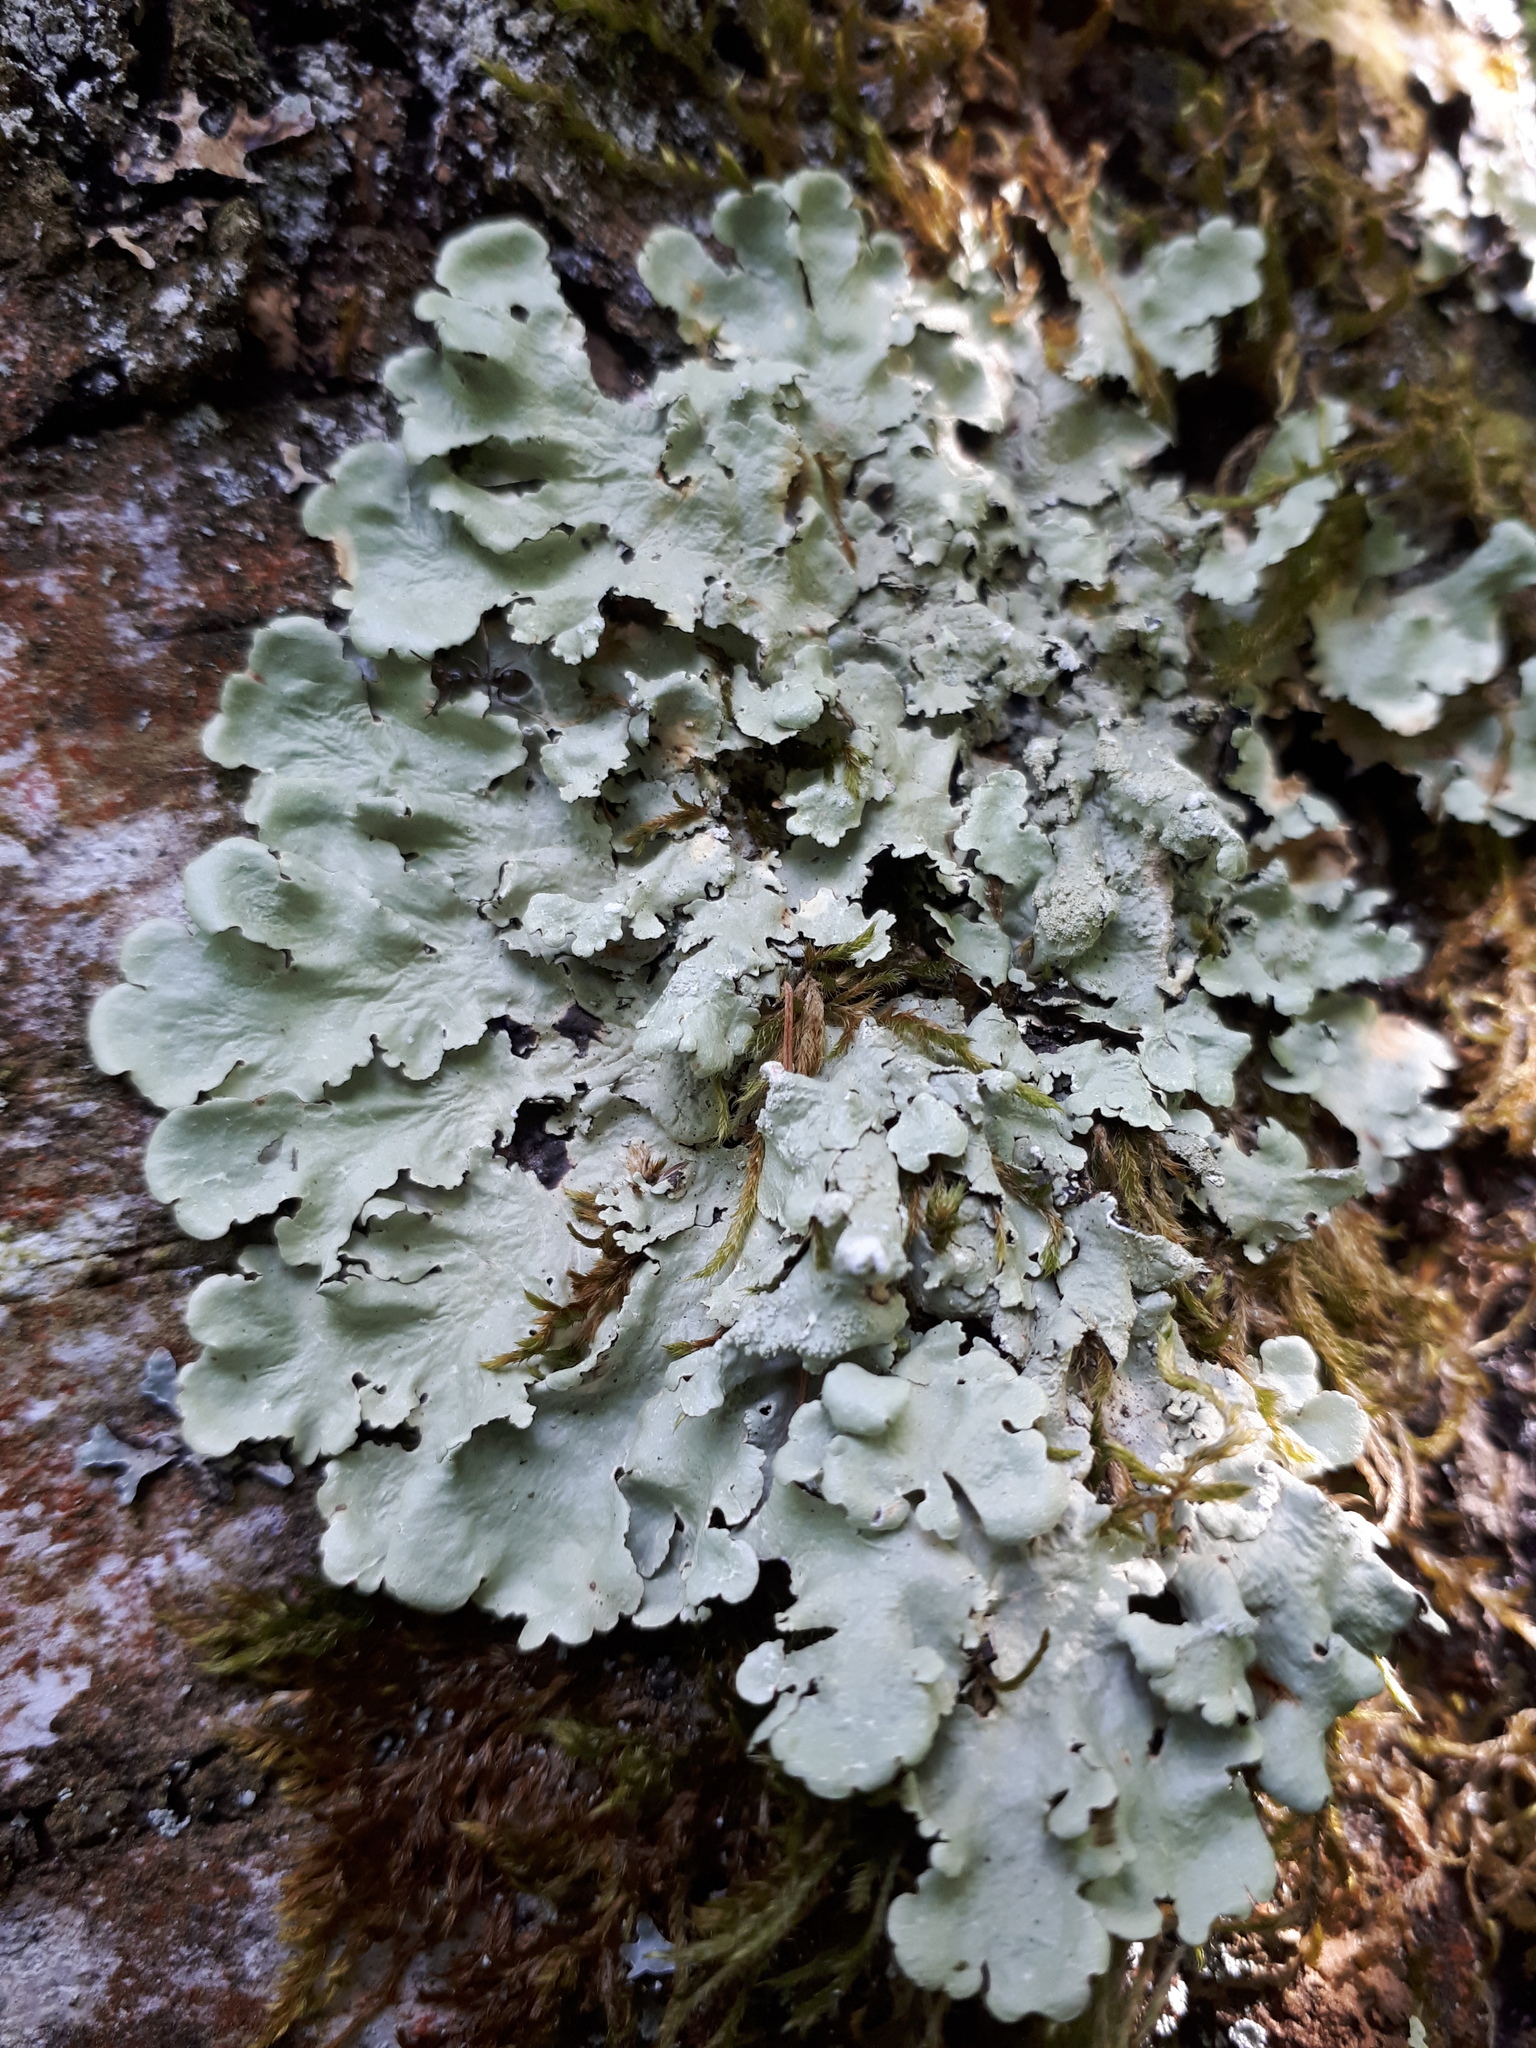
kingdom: Fungi
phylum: Ascomycota
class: Lecanoromycetes
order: Lecanorales
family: Parmeliaceae
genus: Flavoparmelia
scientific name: Flavoparmelia caperata
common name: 40-mile per hour lichen
